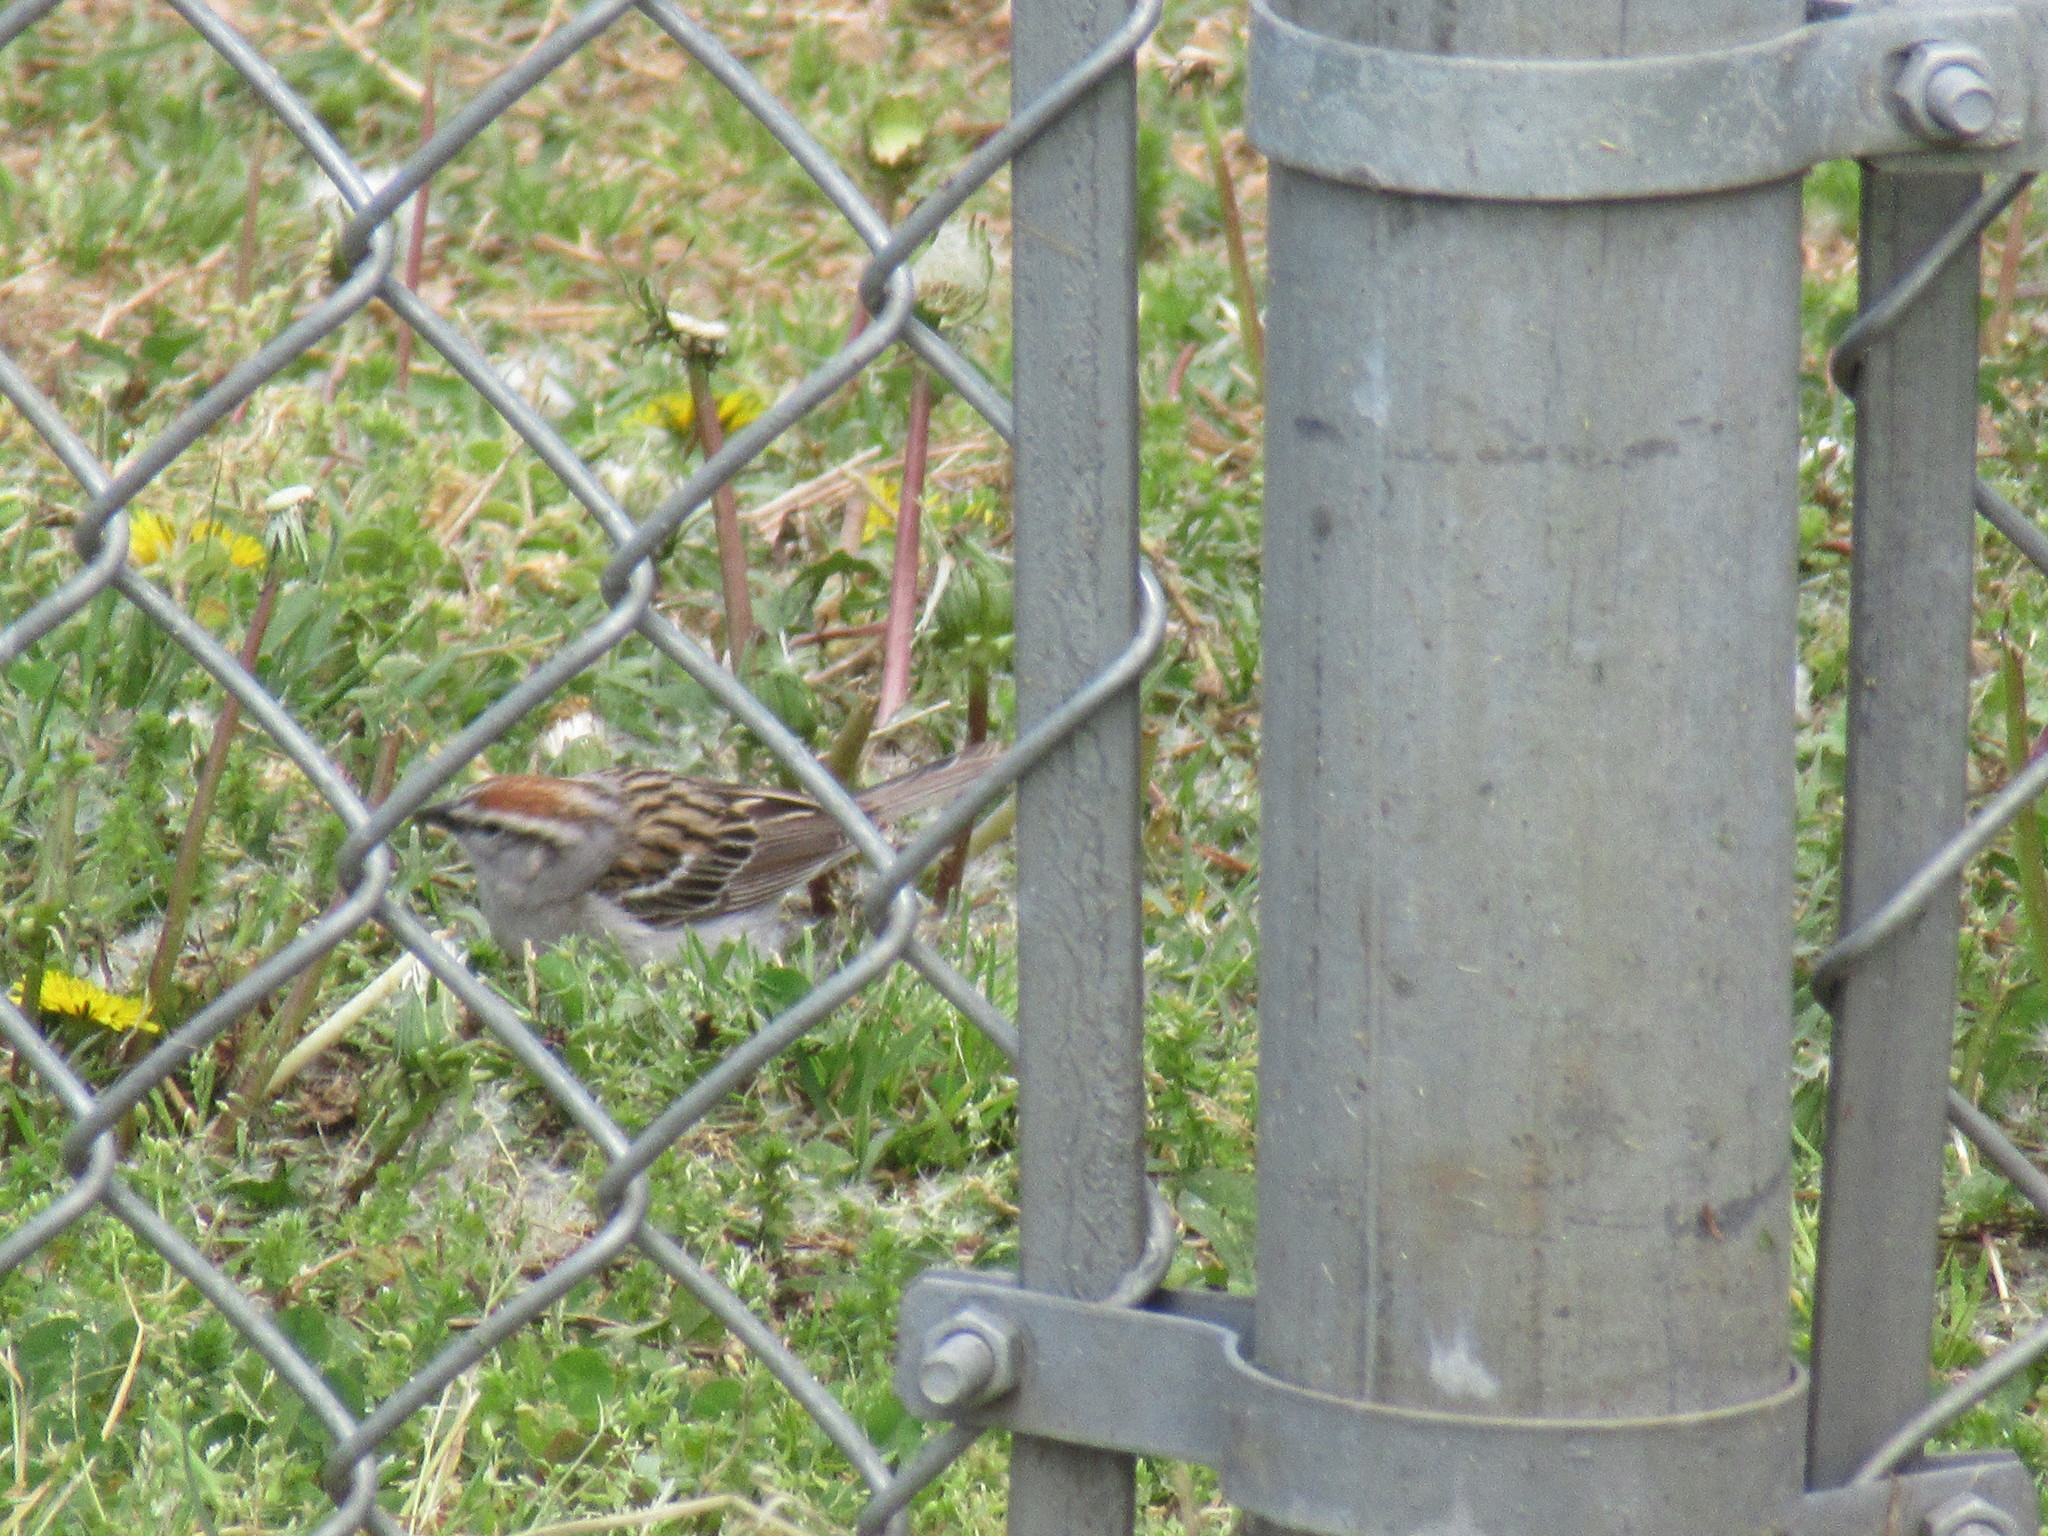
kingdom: Animalia
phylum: Chordata
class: Aves
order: Passeriformes
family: Passerellidae
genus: Spizella
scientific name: Spizella passerina
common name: Chipping sparrow
